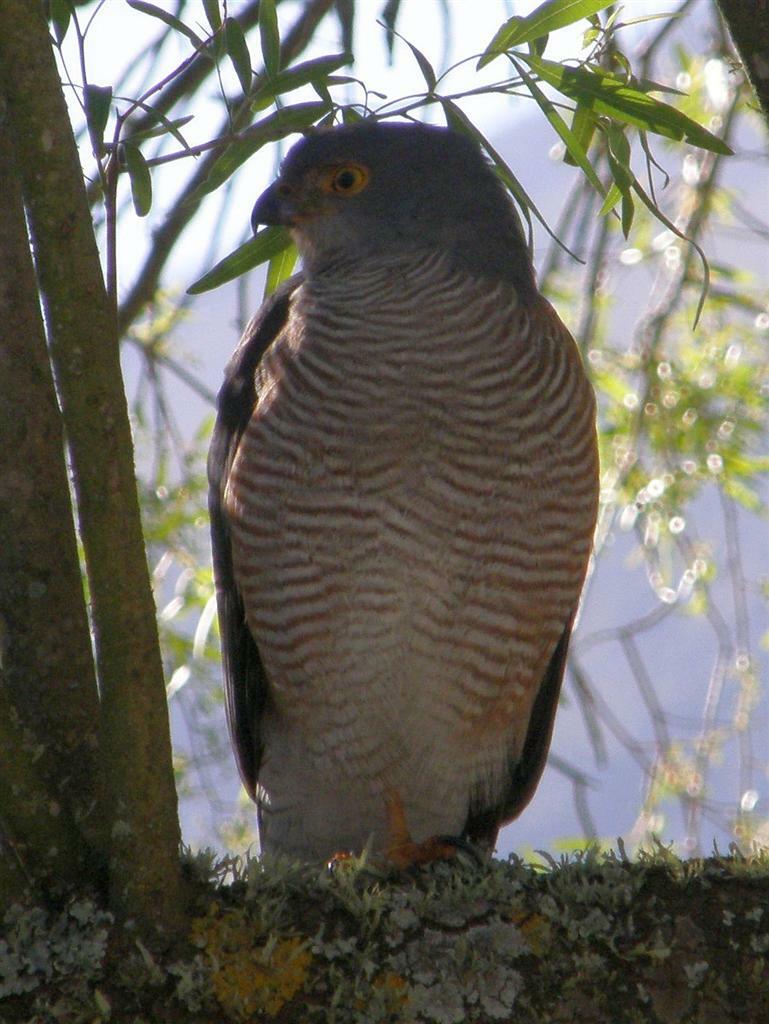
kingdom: Animalia
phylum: Chordata
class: Aves
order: Accipitriformes
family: Accipitridae
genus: Accipiter
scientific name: Accipiter tachiro
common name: African goshawk
